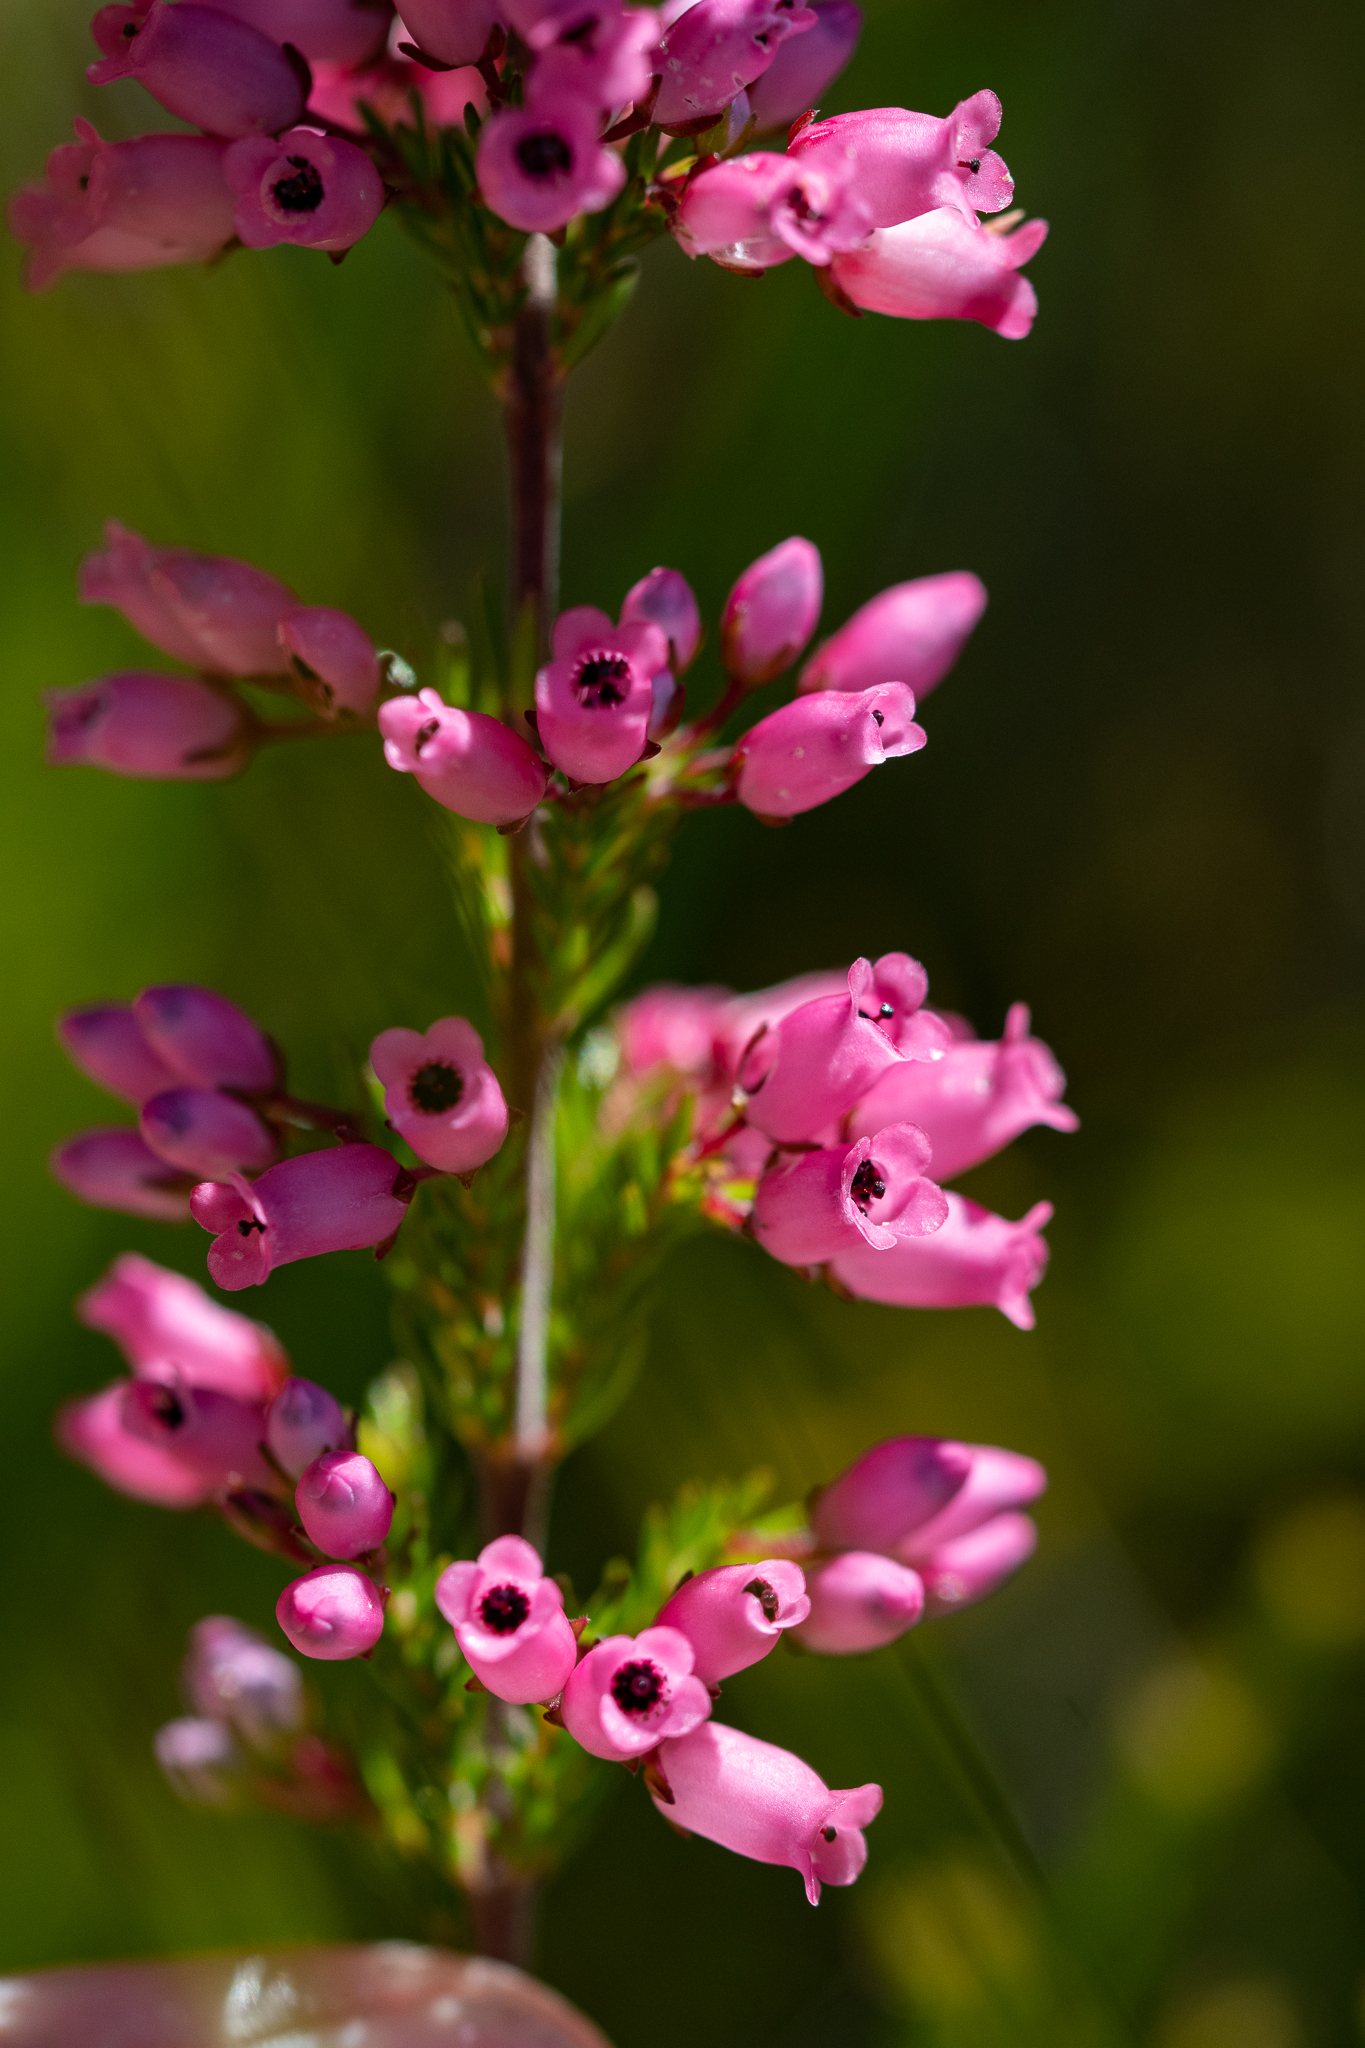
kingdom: Plantae
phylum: Tracheophyta
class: Magnoliopsida
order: Ericales
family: Ericaceae
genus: Erica
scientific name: Erica tenella
